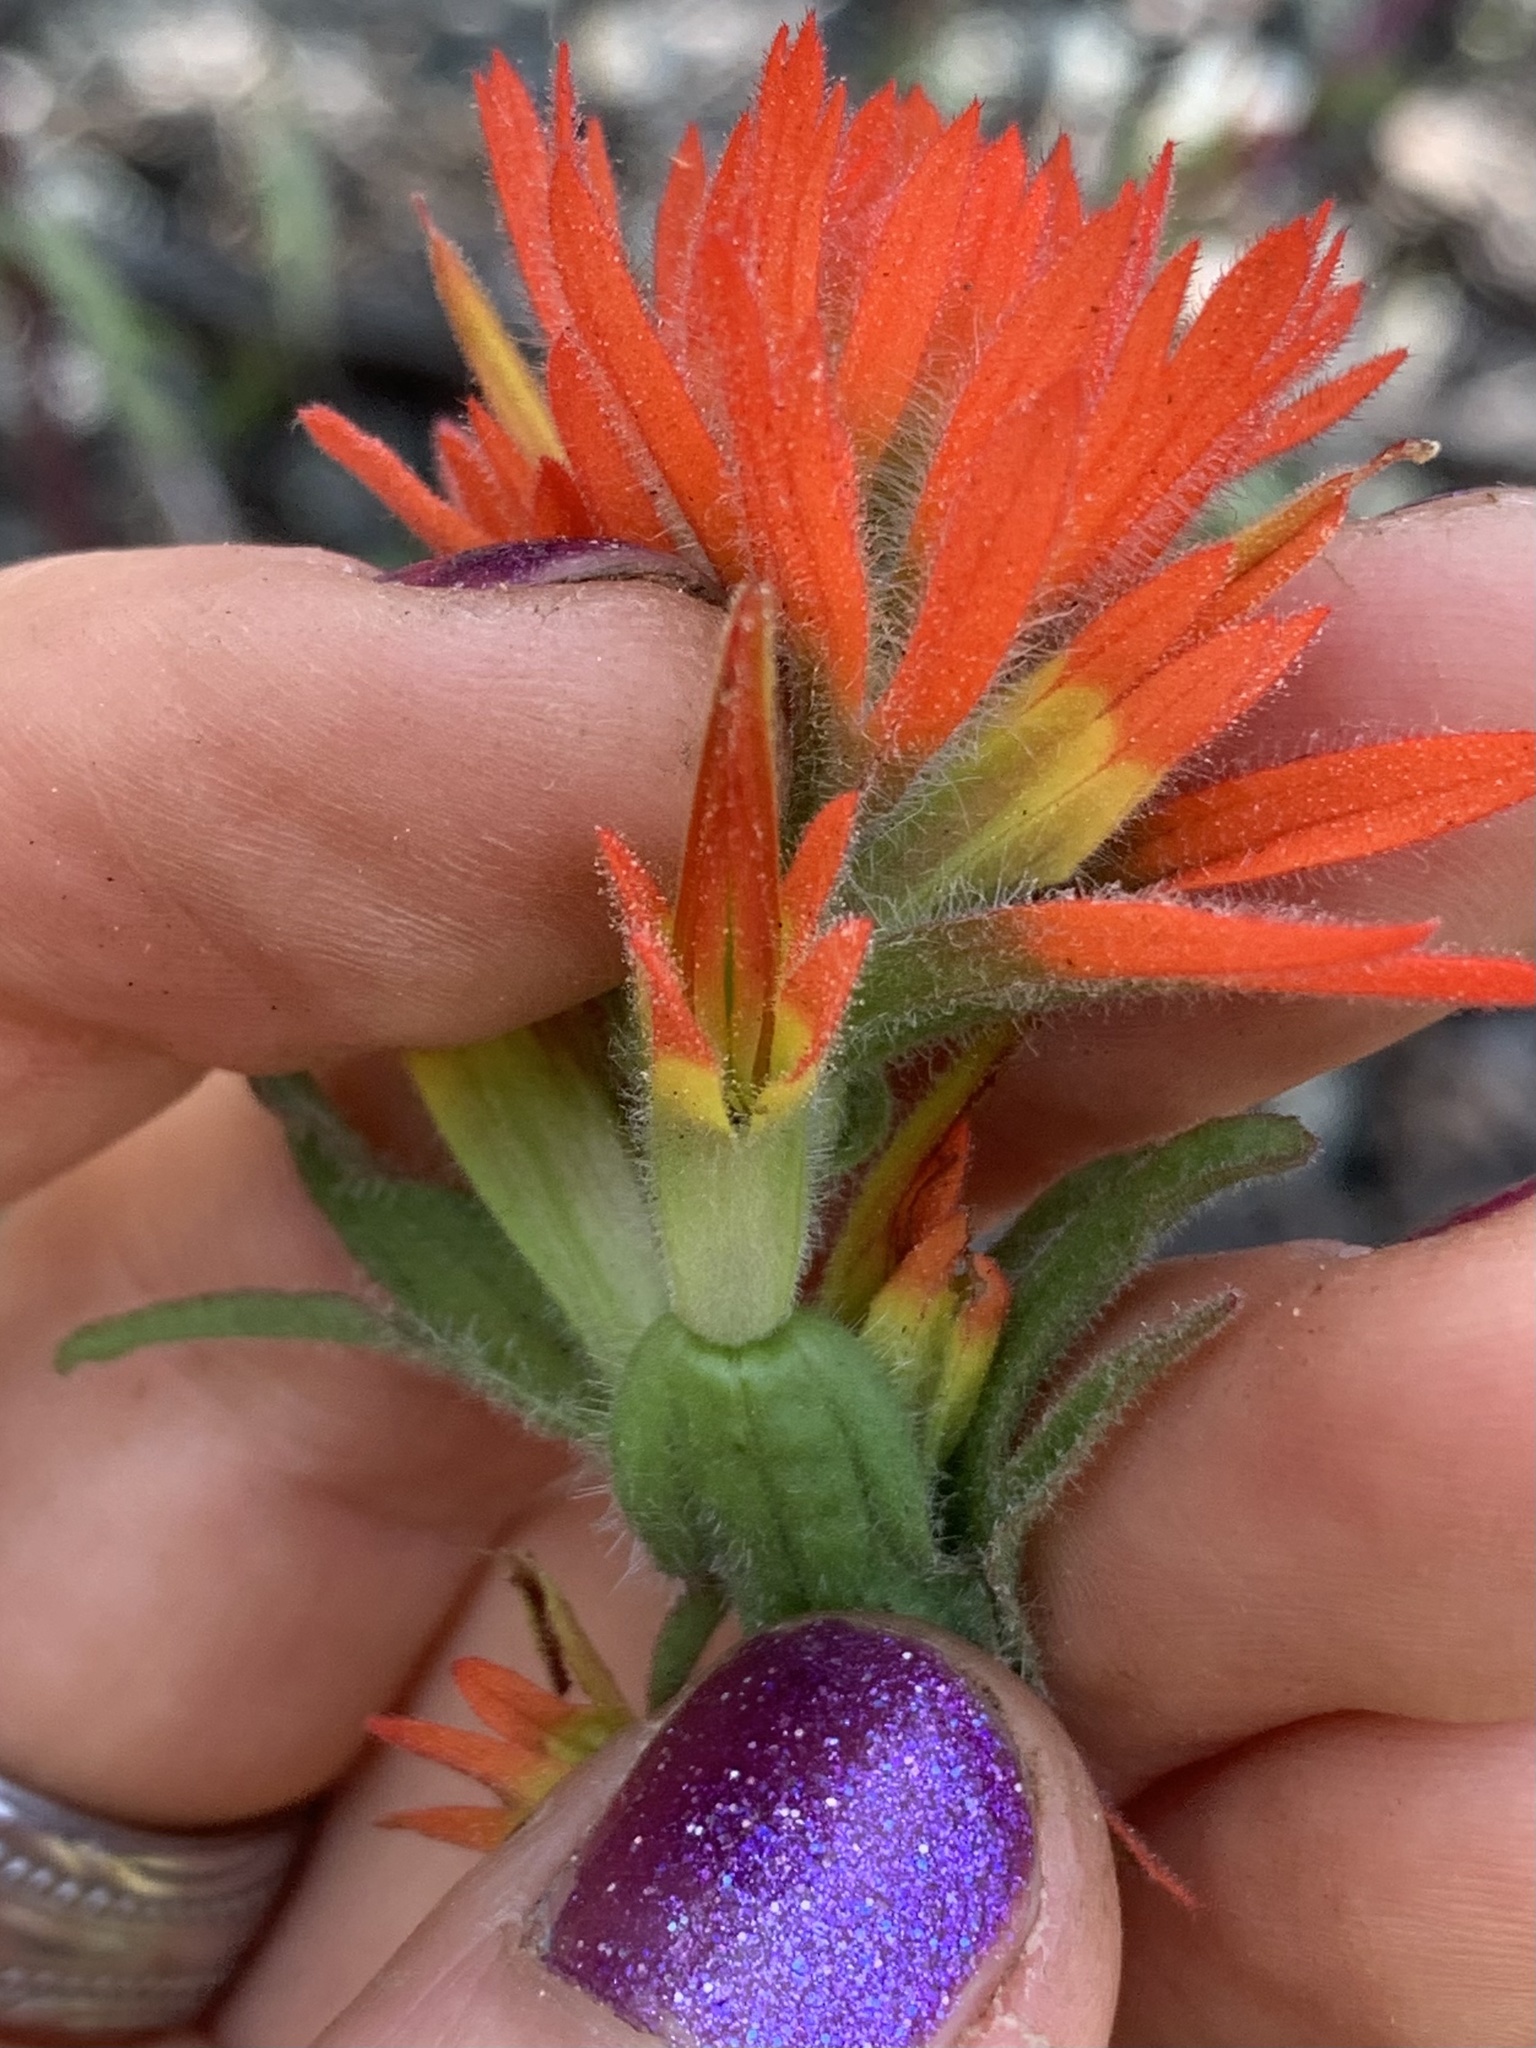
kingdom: Plantae
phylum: Tracheophyta
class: Magnoliopsida
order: Lamiales
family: Orobanchaceae
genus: Castilleja
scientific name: Castilleja pruinosa
